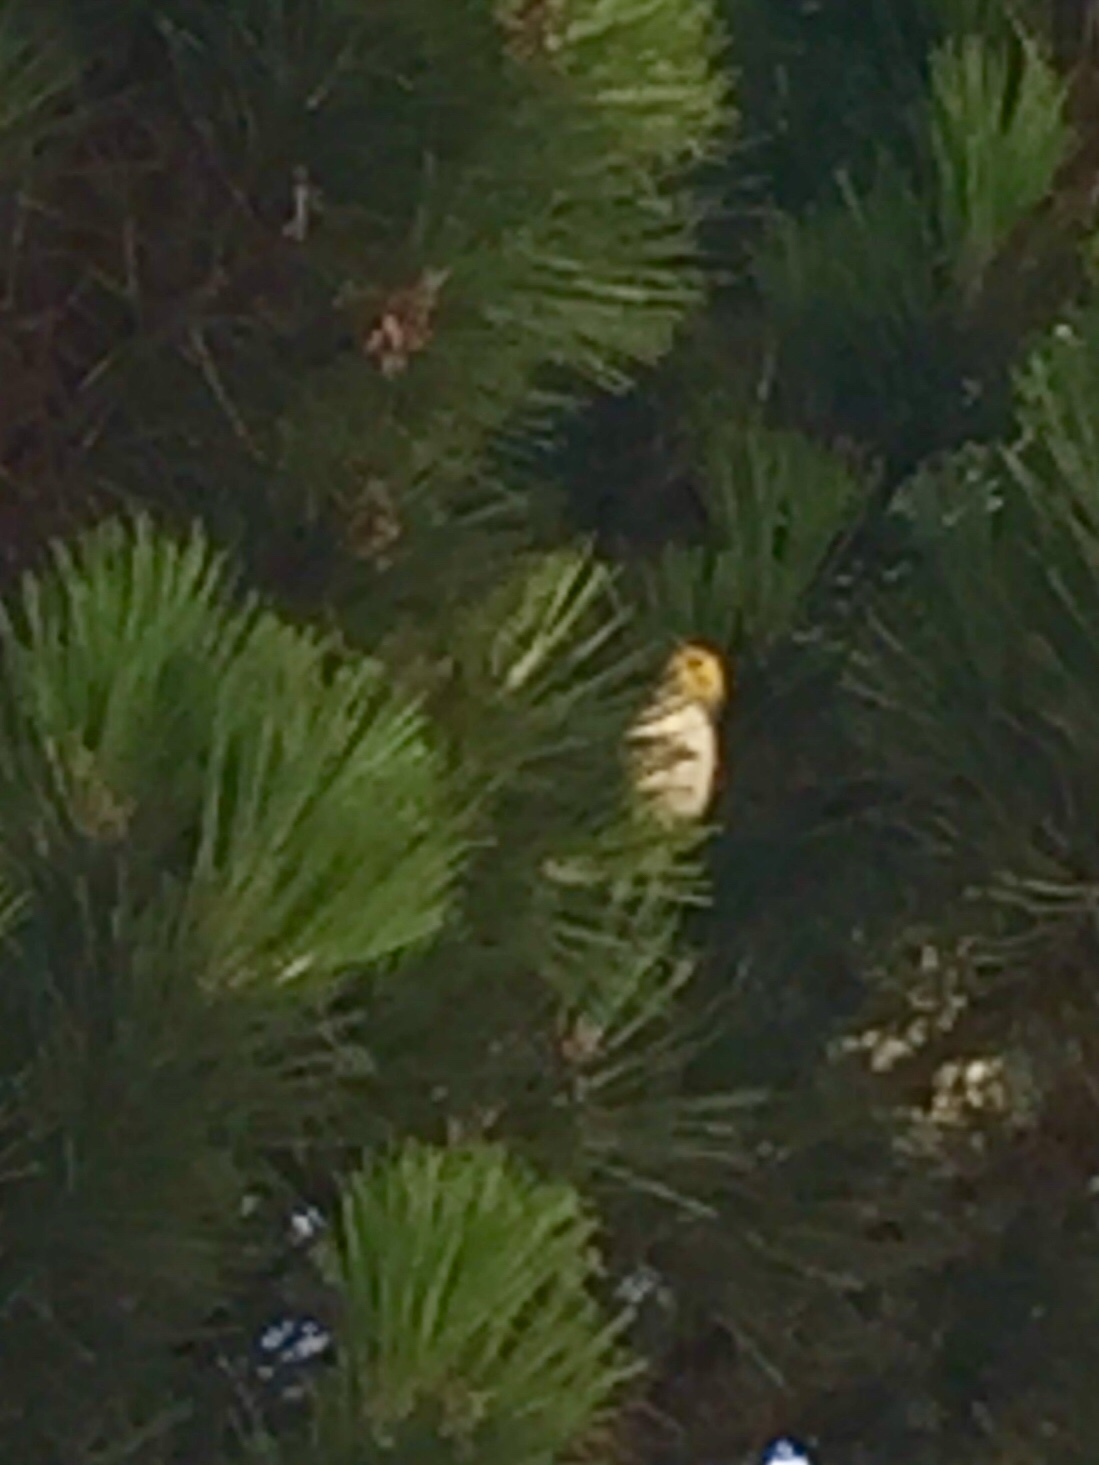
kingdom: Animalia
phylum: Chordata
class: Aves
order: Passeriformes
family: Parulidae
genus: Setophaga
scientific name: Setophaga occidentalis
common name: Hermit warbler
